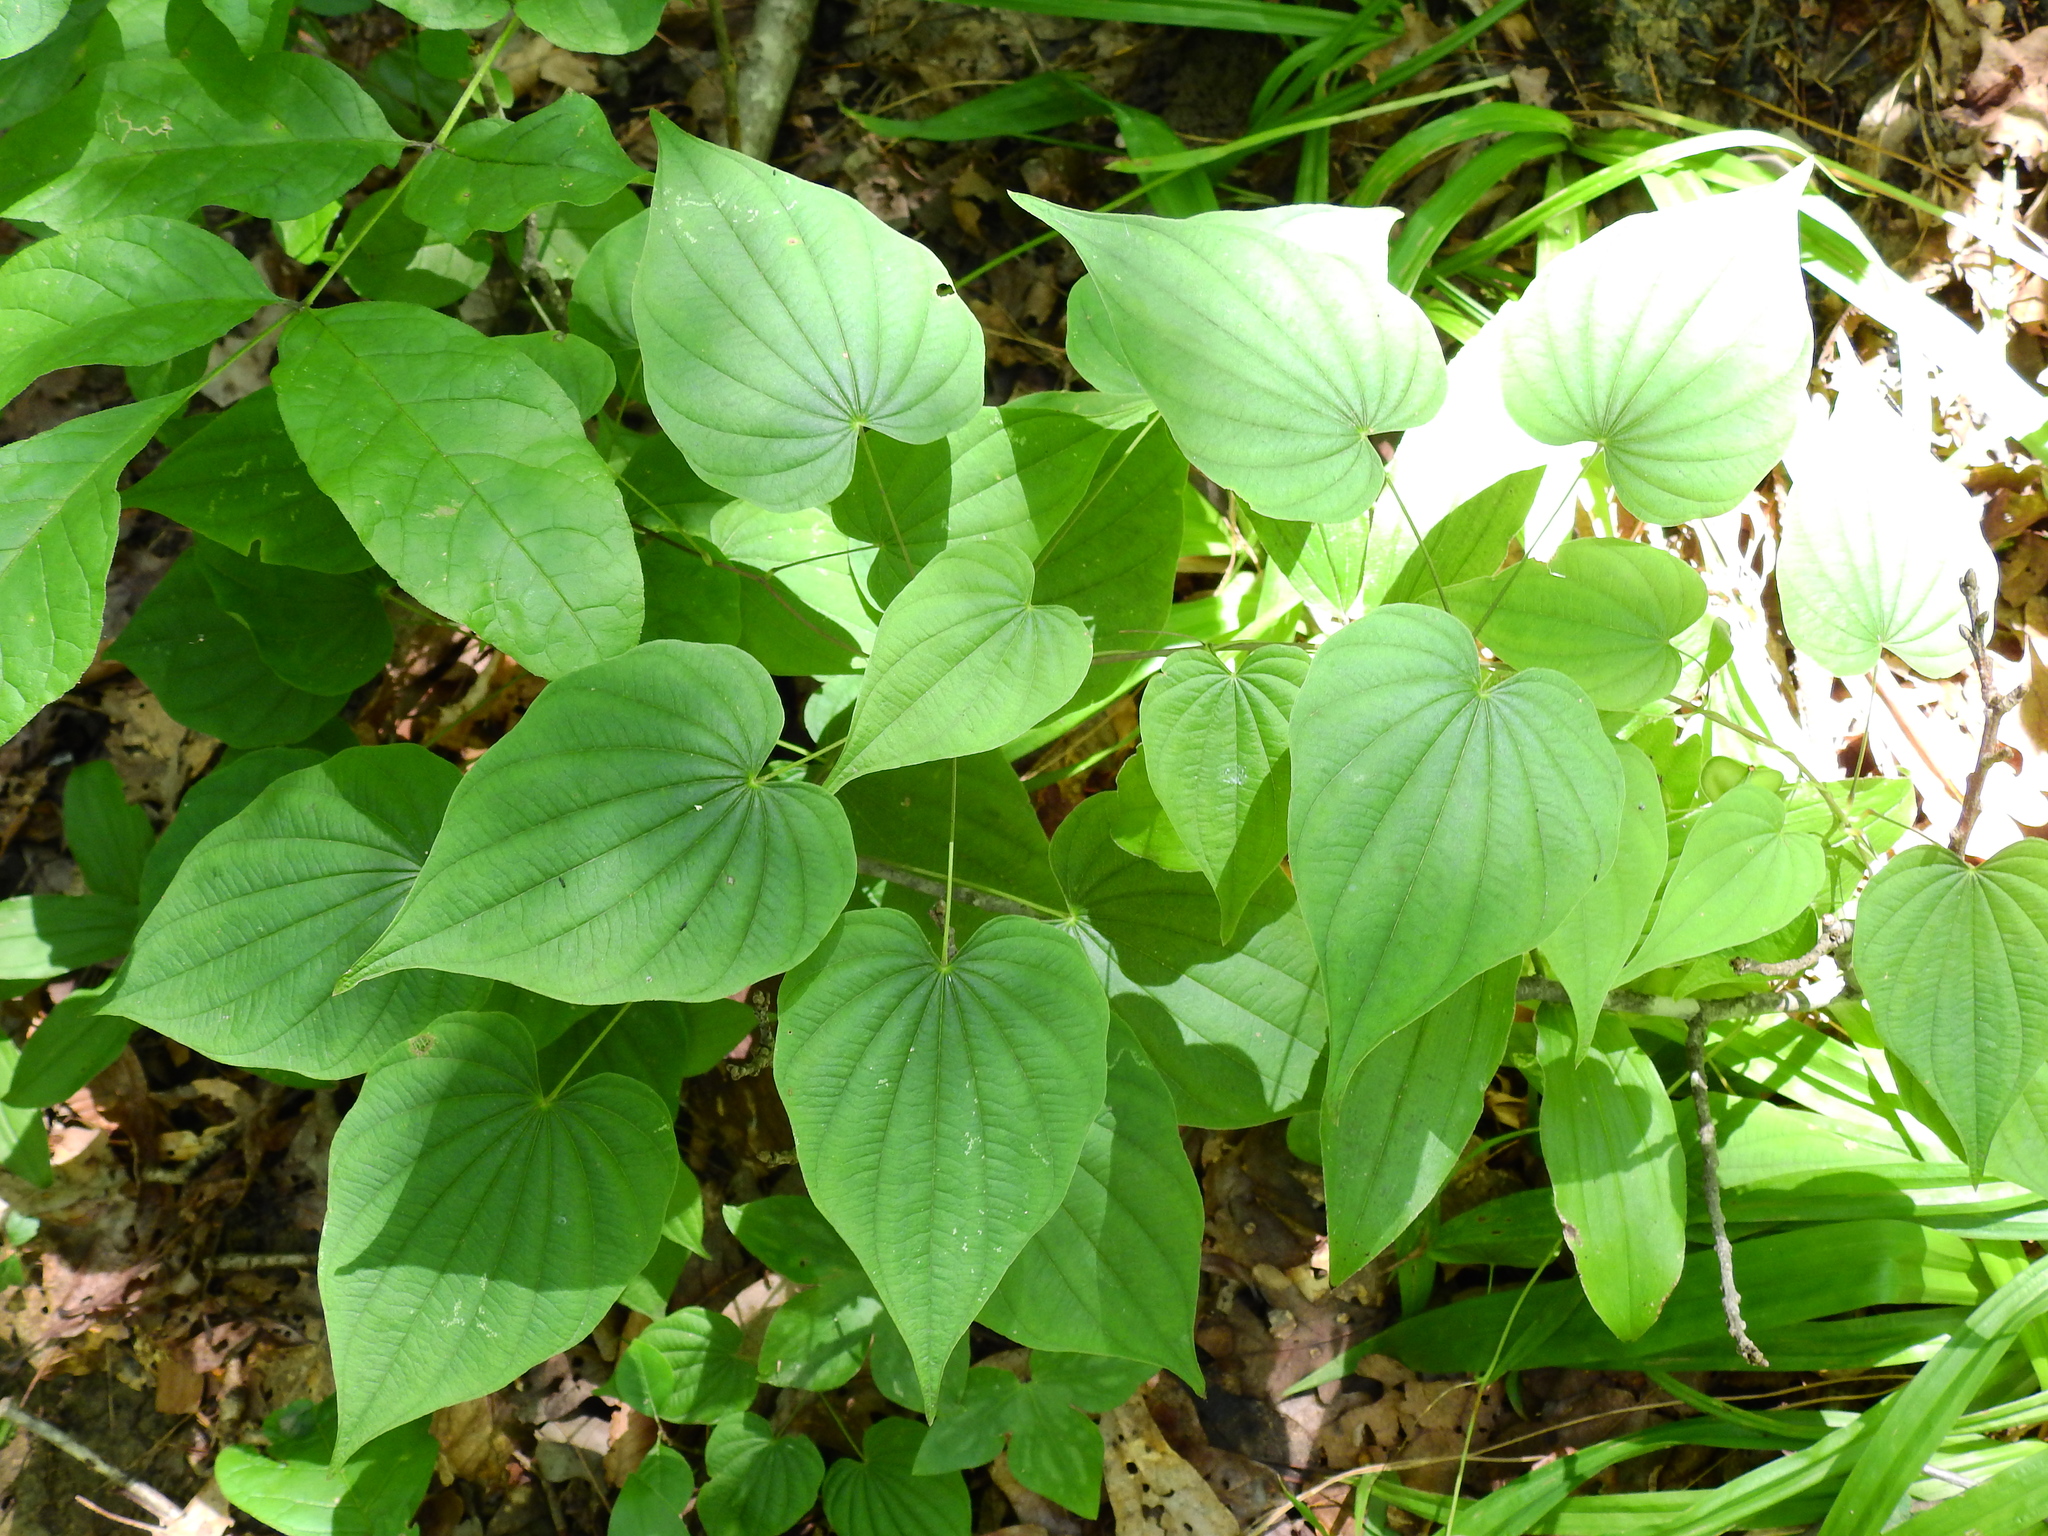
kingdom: Plantae
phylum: Tracheophyta
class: Liliopsida
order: Dioscoreales
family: Dioscoreaceae
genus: Dioscorea
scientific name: Dioscorea villosa
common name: Wild yam
